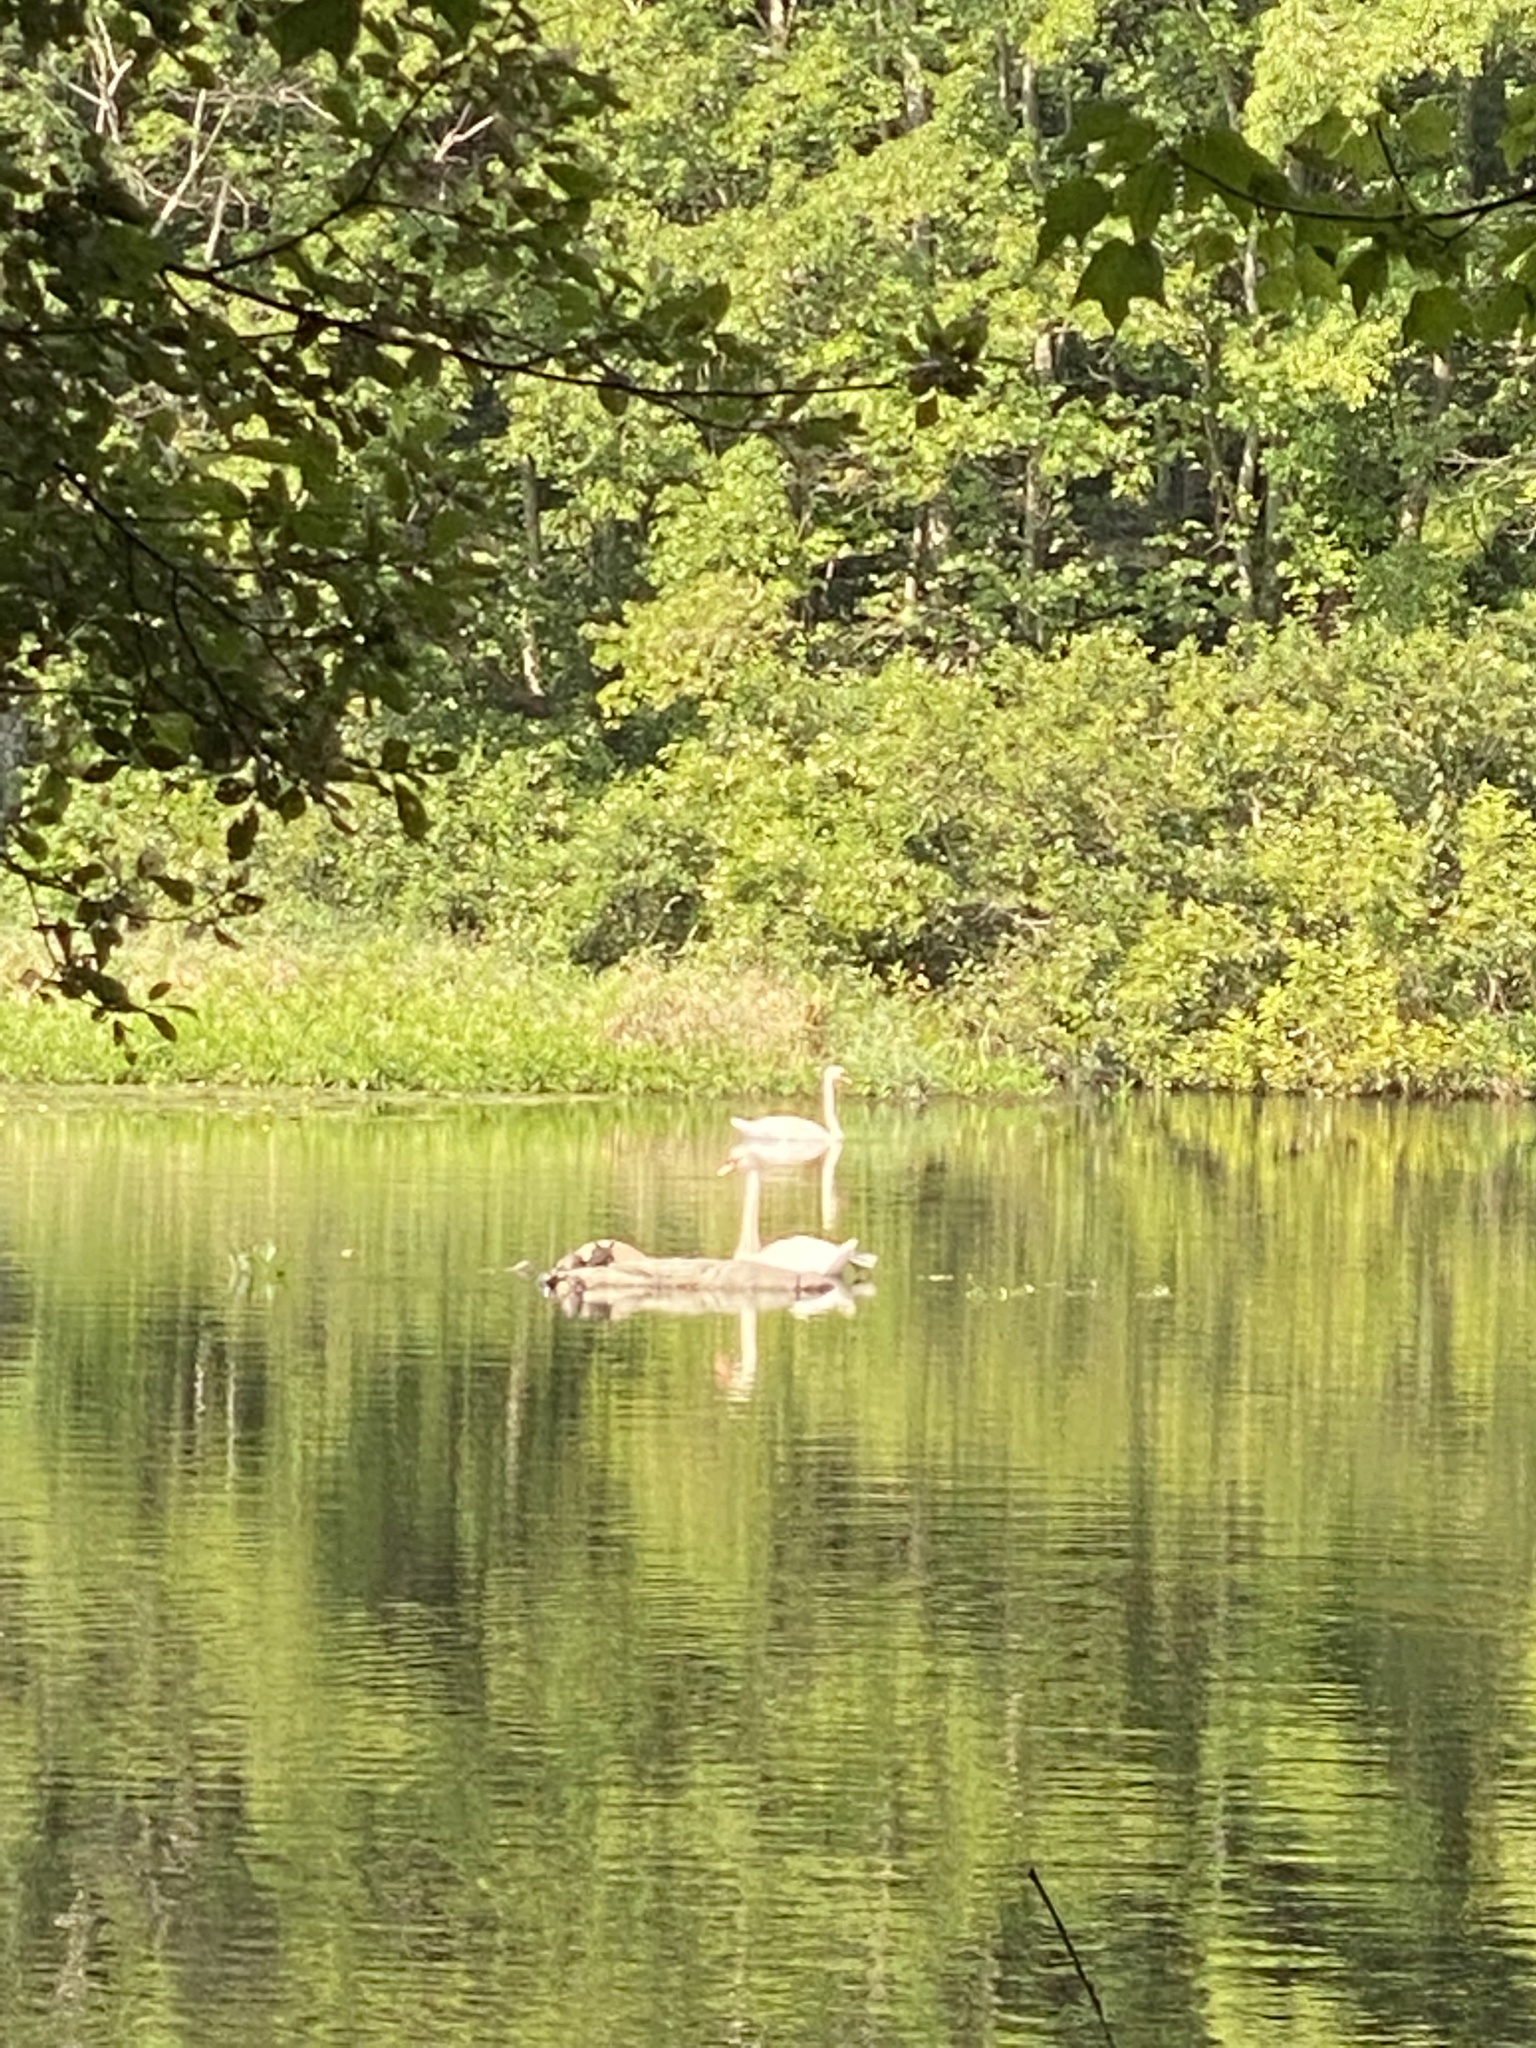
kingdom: Animalia
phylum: Chordata
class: Aves
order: Anseriformes
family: Anatidae
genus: Cygnus
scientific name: Cygnus olor
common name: Mute swan
